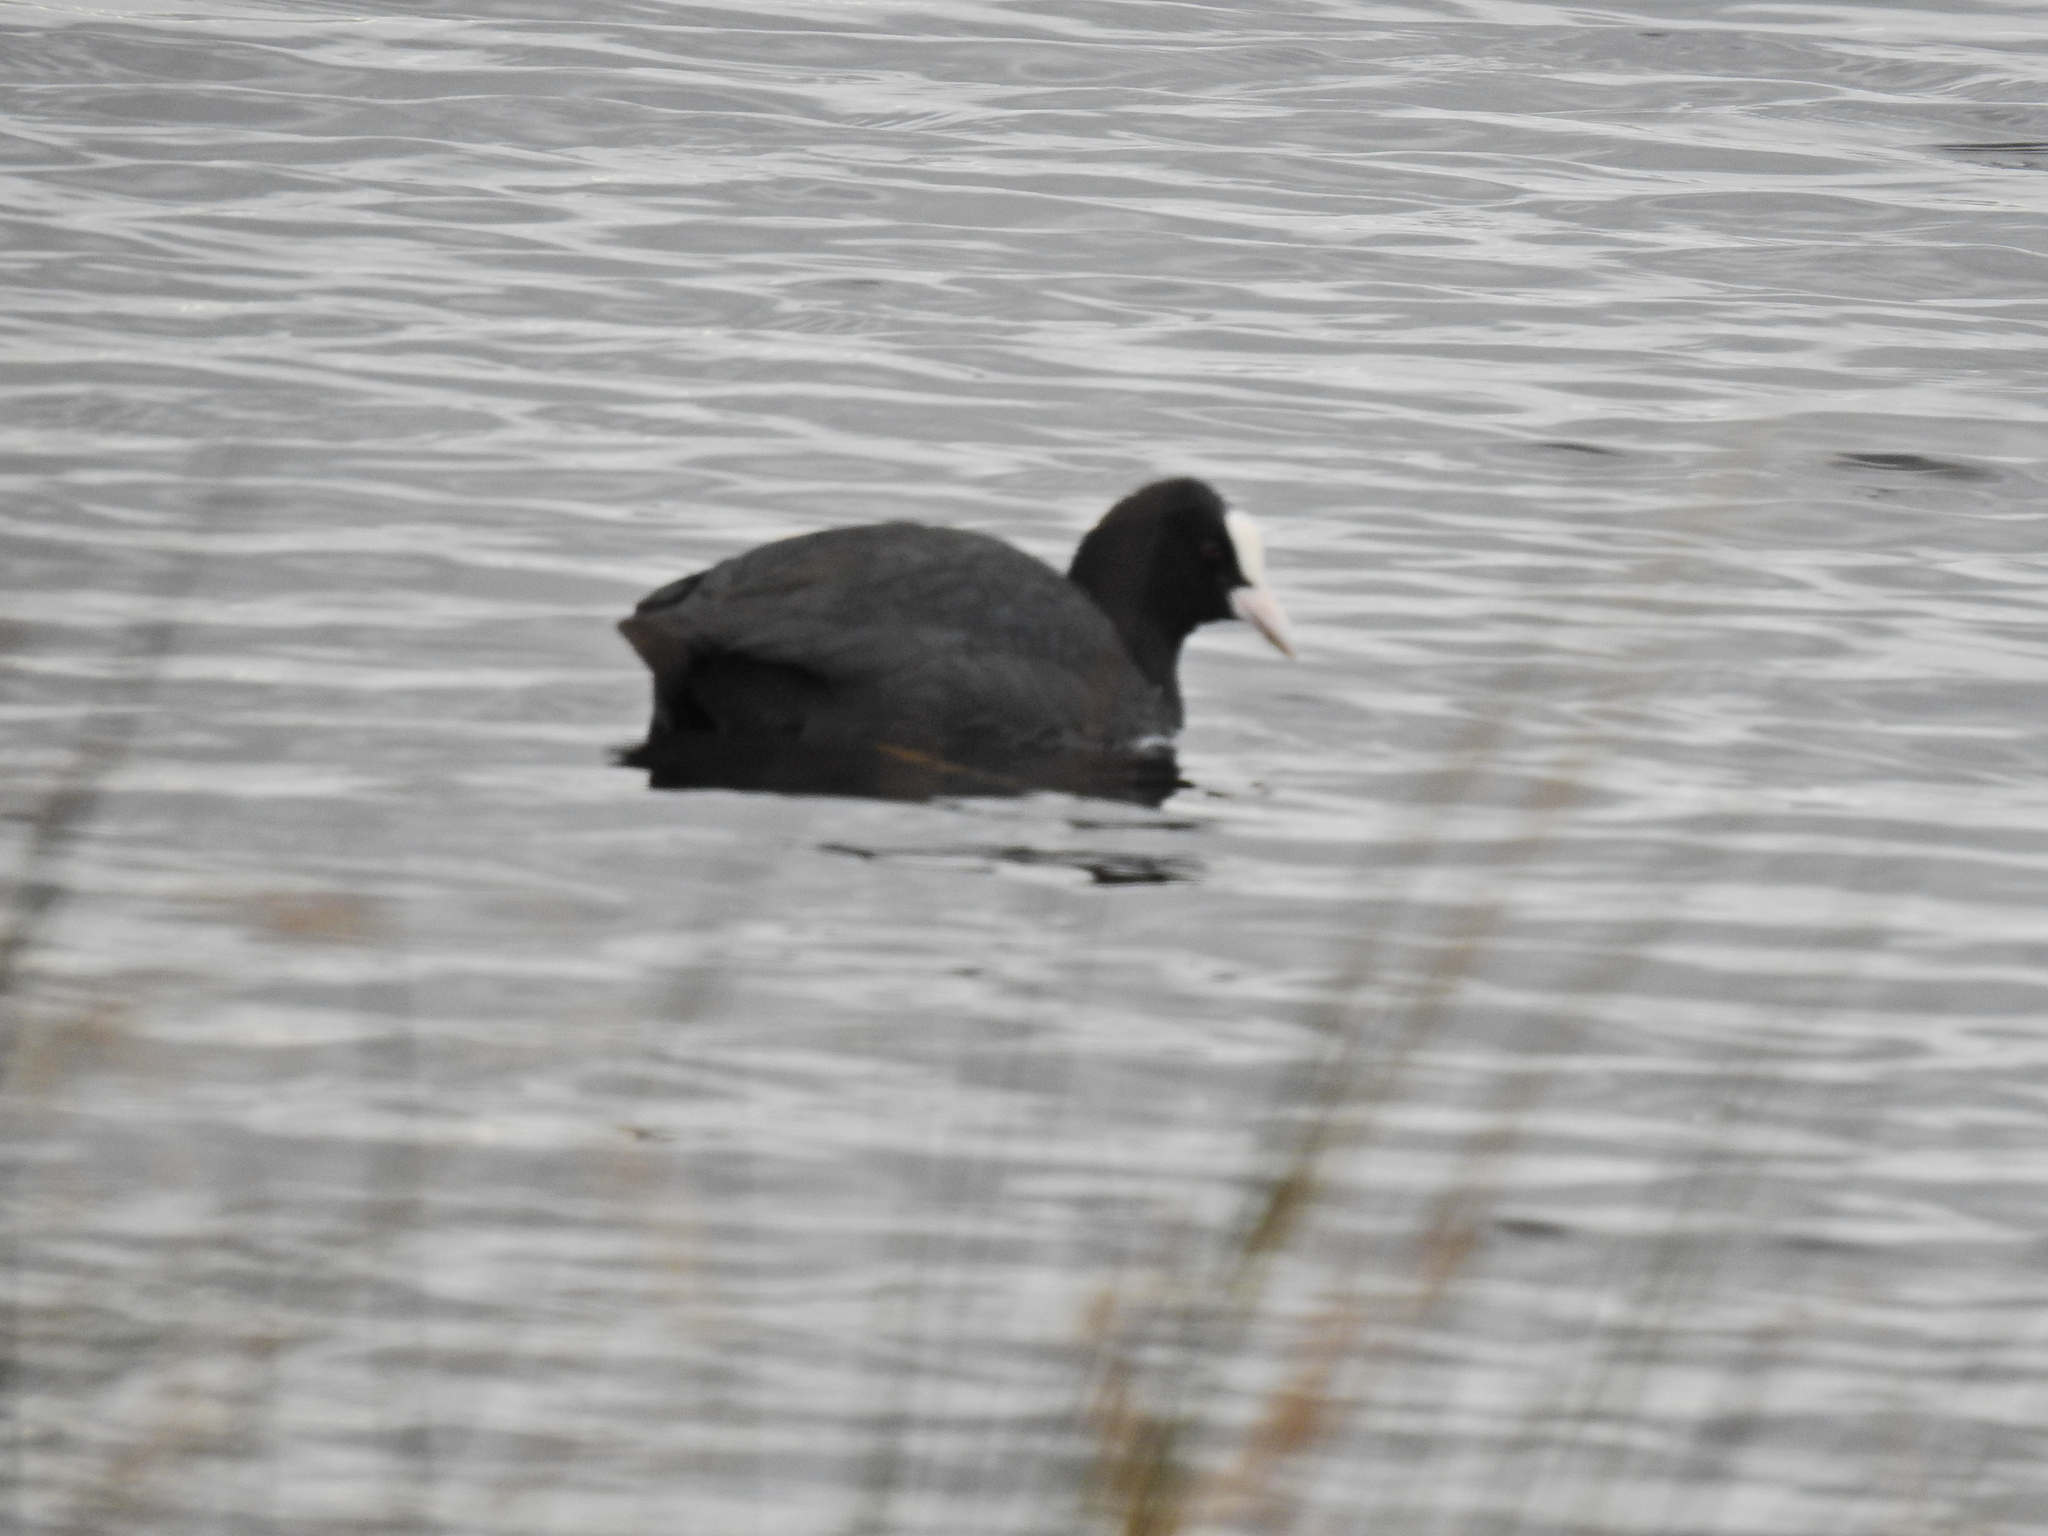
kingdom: Animalia
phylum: Chordata
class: Aves
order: Gruiformes
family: Rallidae
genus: Fulica
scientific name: Fulica atra
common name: Eurasian coot
